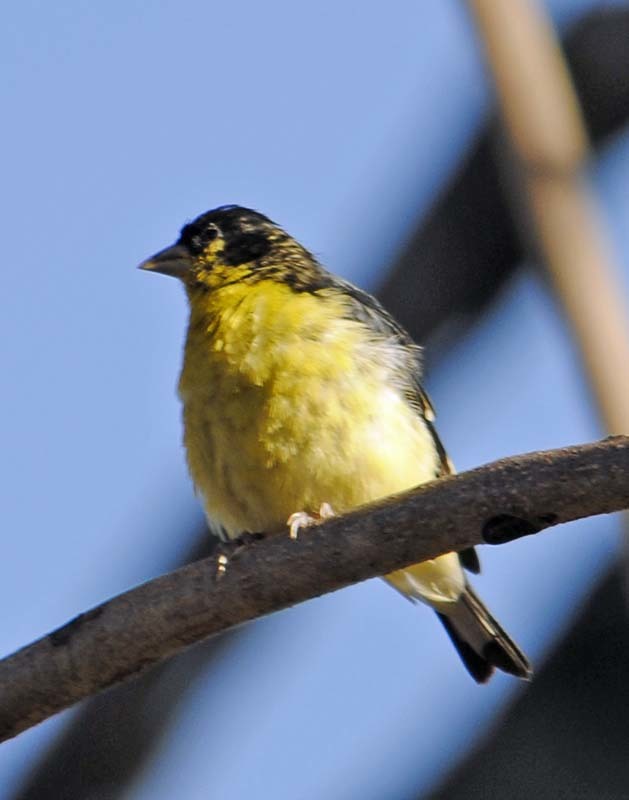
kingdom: Animalia
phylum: Chordata
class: Aves
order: Passeriformes
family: Fringillidae
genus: Spinus
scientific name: Spinus psaltria
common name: Lesser goldfinch
